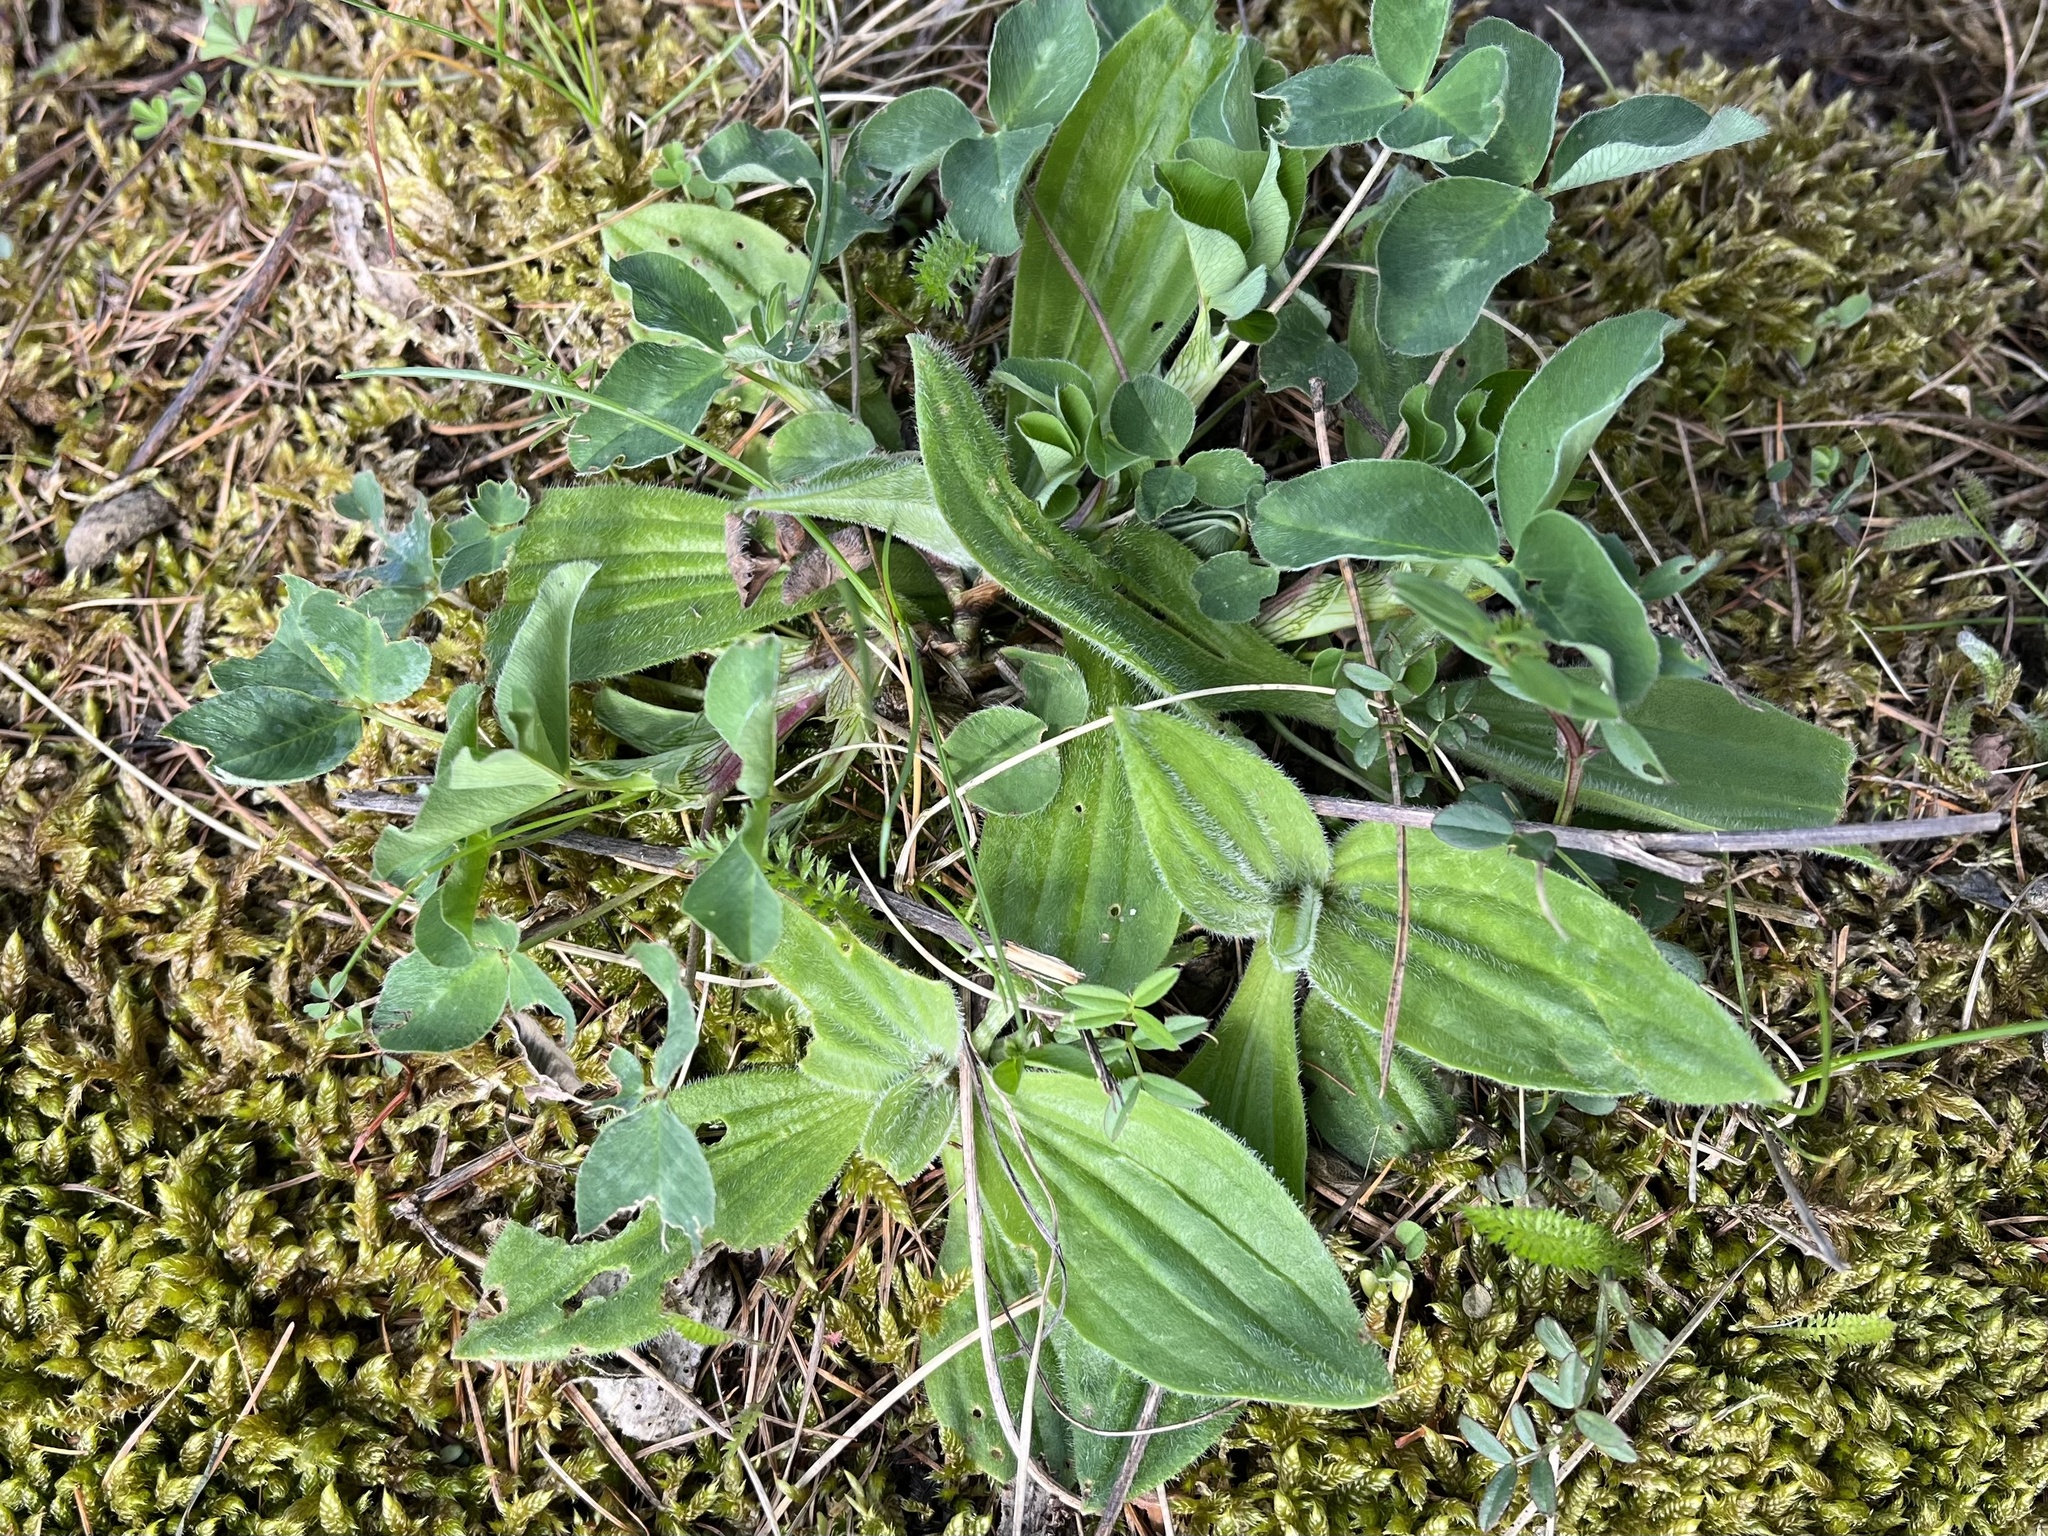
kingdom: Plantae
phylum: Tracheophyta
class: Magnoliopsida
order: Lamiales
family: Plantaginaceae
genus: Plantago
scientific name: Plantago media
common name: Hoary plantain
